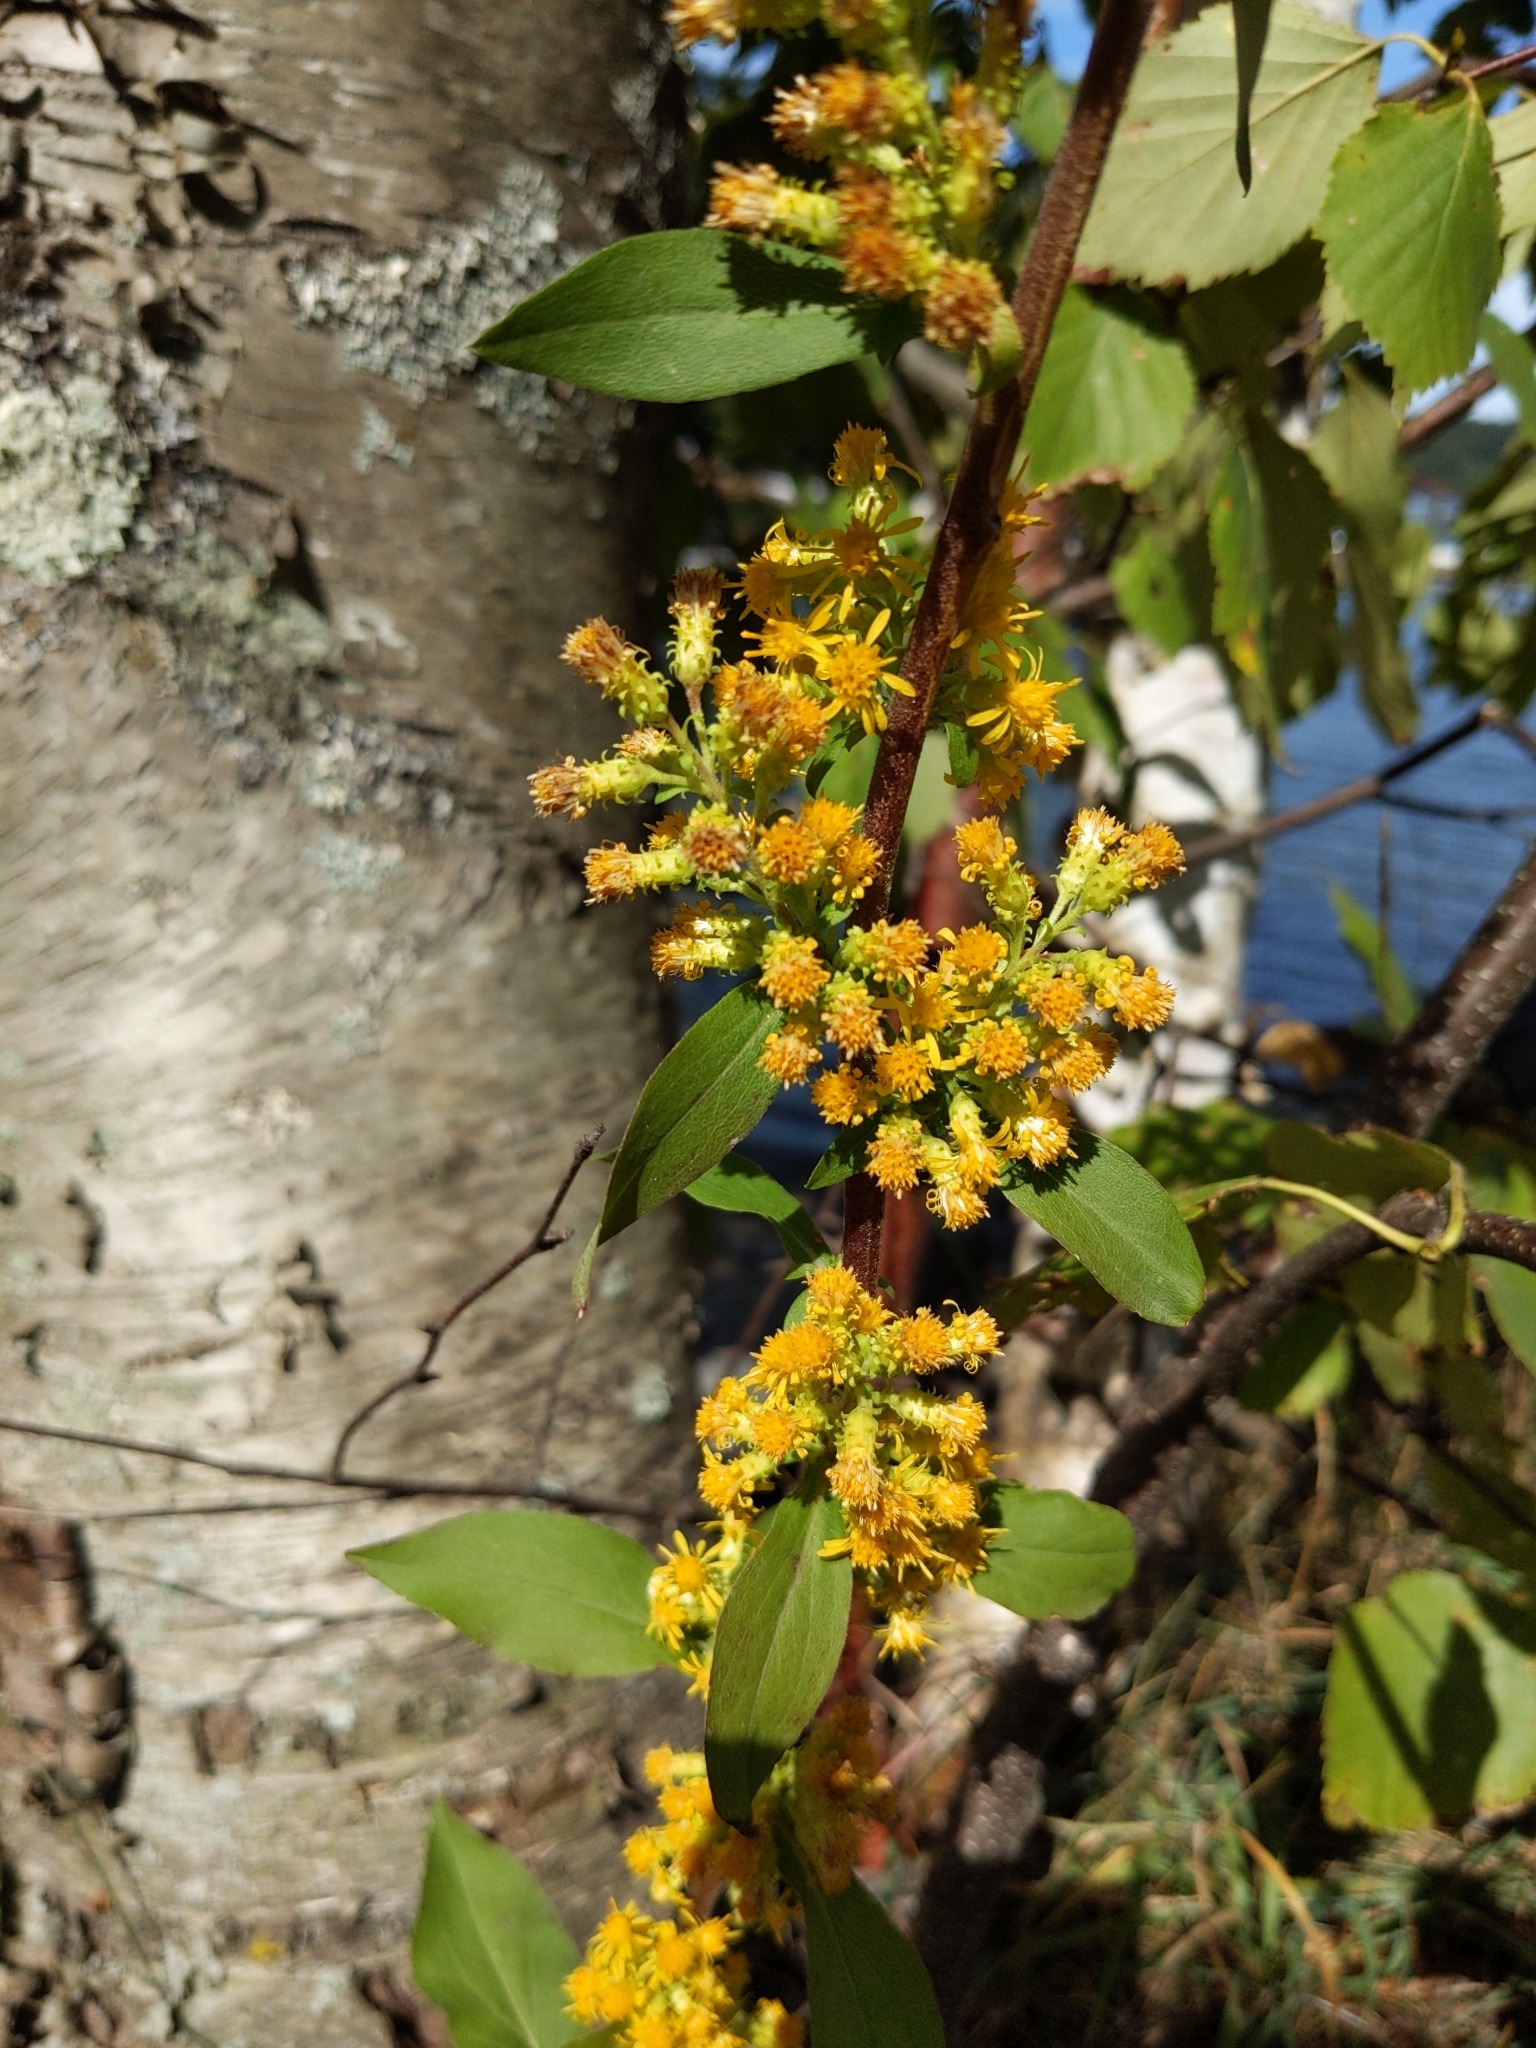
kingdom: Plantae
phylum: Tracheophyta
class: Magnoliopsida
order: Asterales
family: Asteraceae
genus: Solidago
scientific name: Solidago squarrosa
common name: Stout goldenrod
